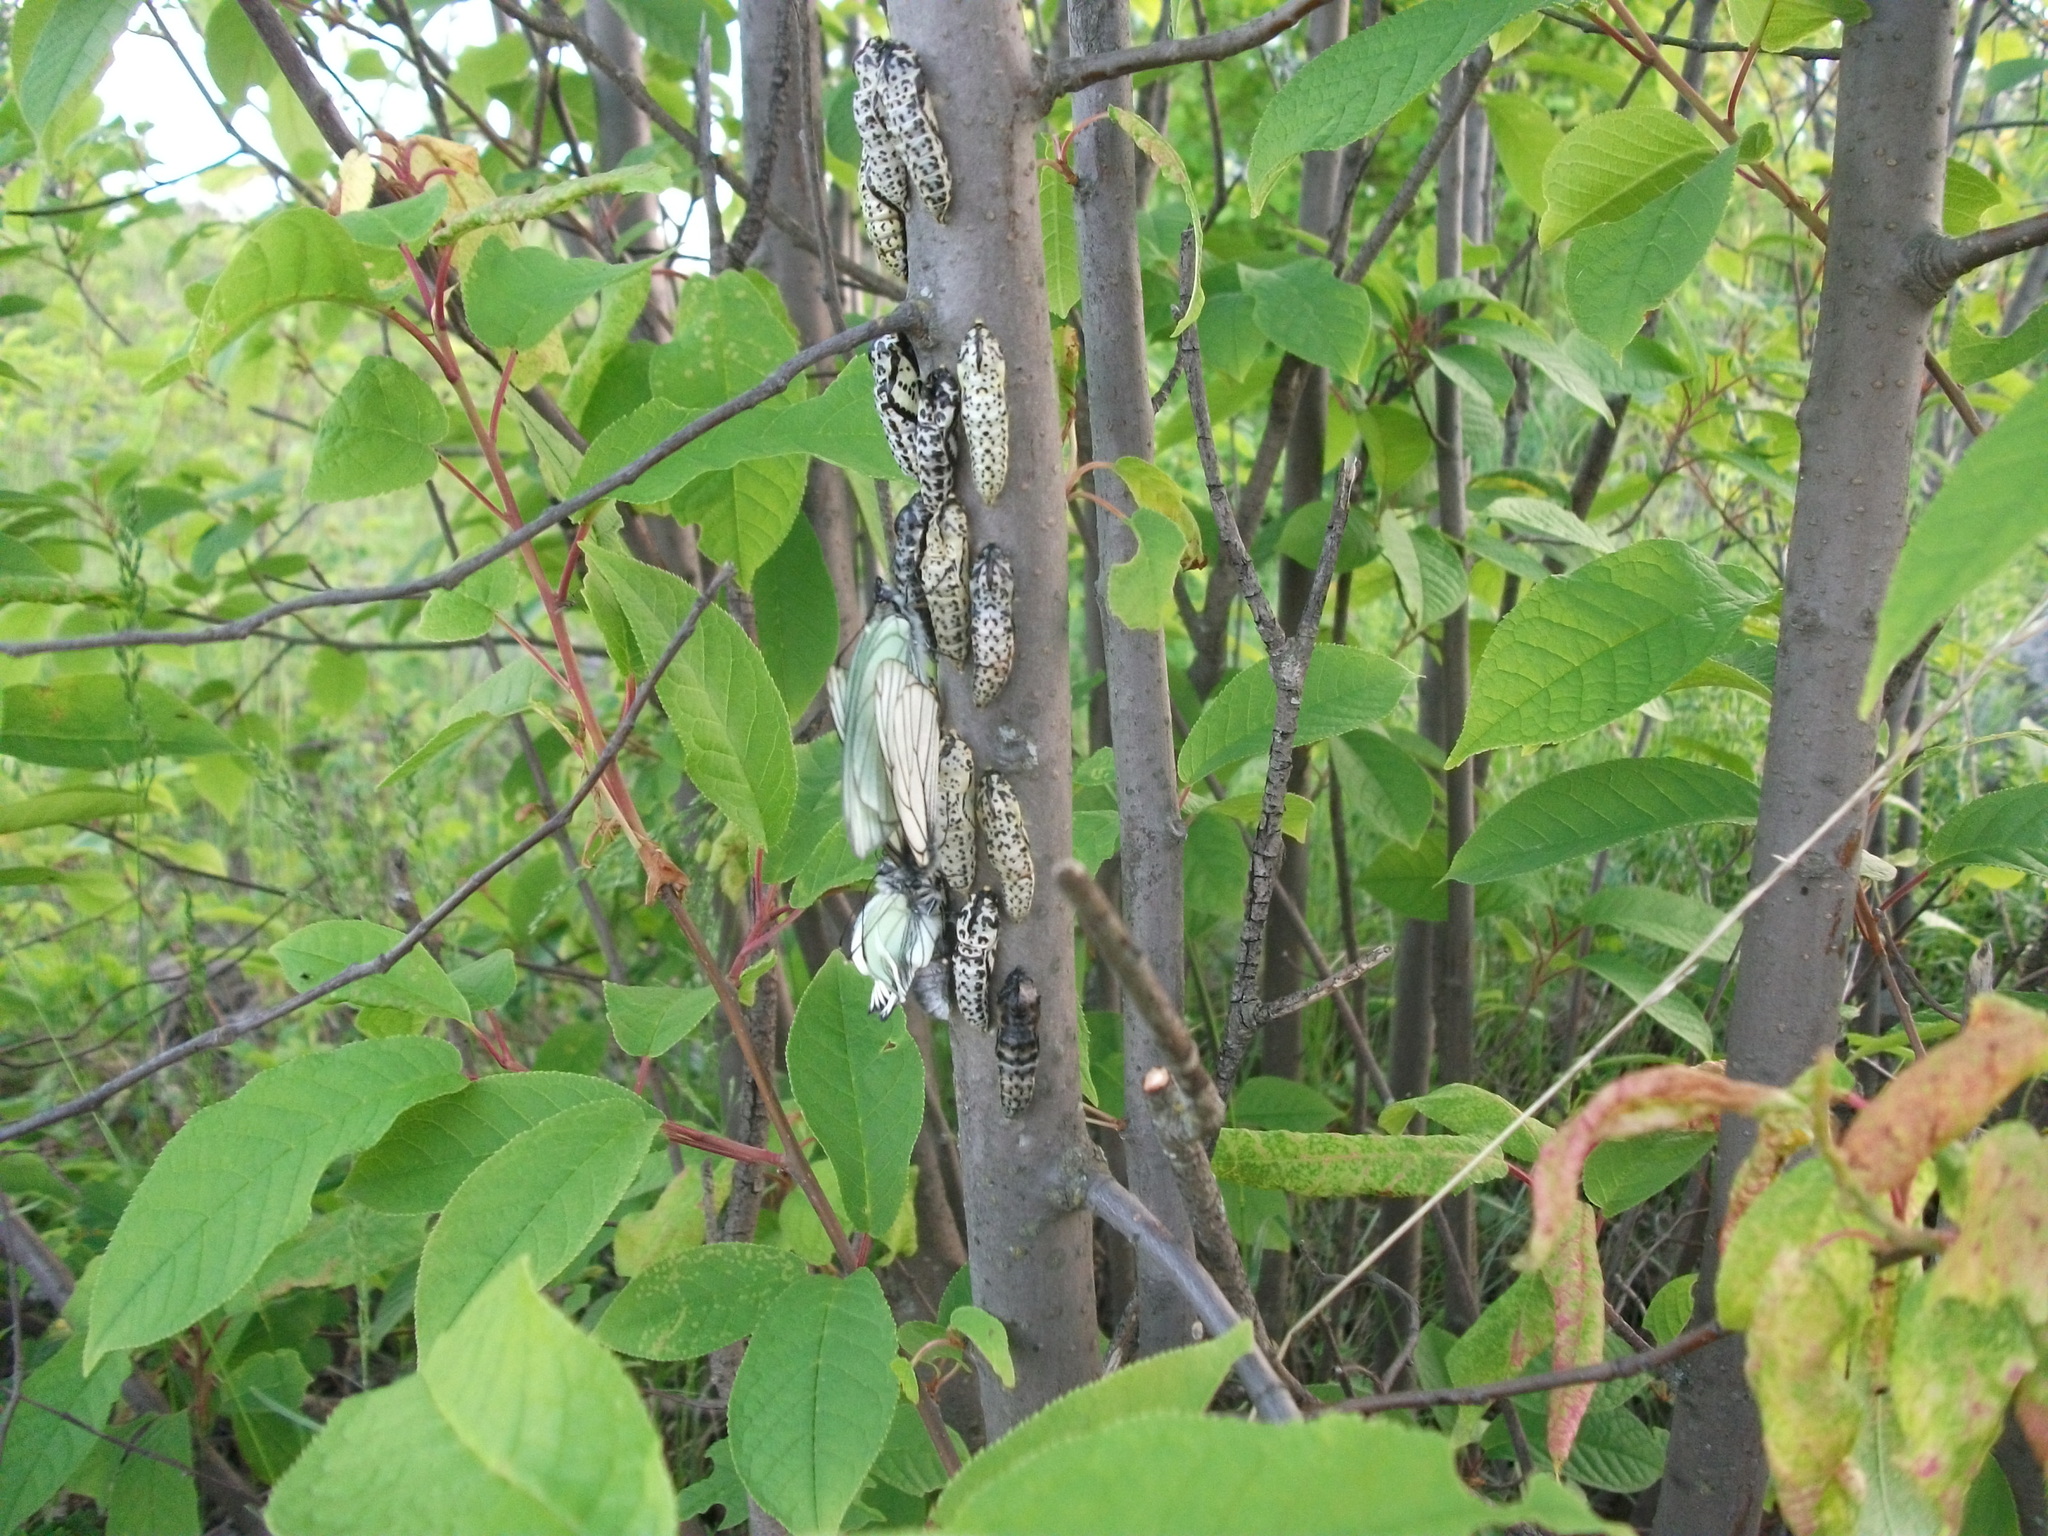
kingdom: Animalia
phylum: Arthropoda
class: Insecta
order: Lepidoptera
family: Pieridae
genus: Aporia
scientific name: Aporia crataegi
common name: Black-veined white
